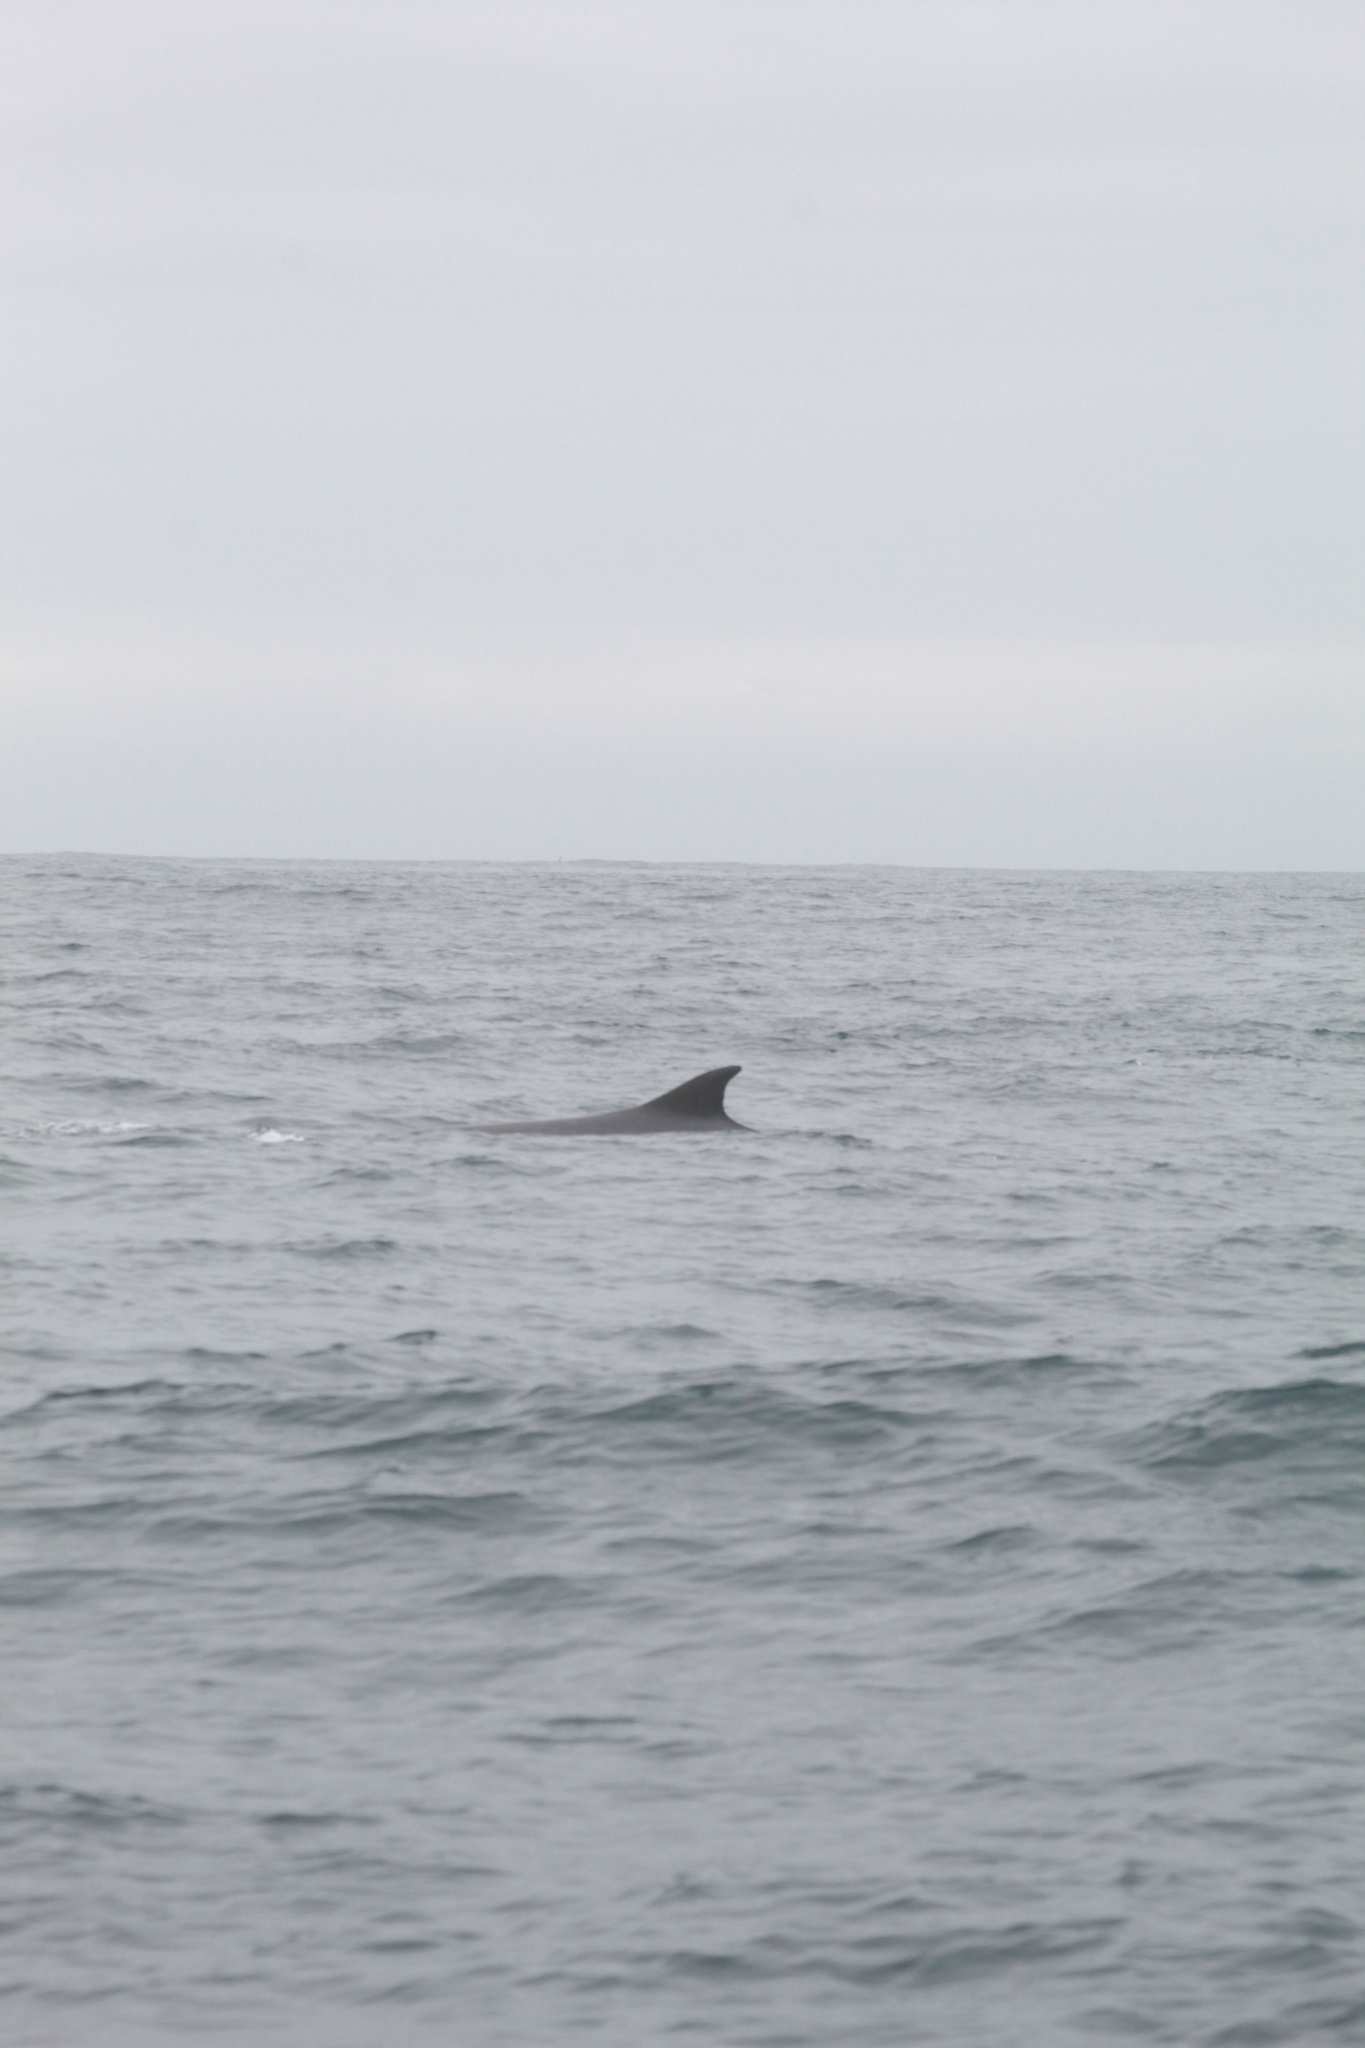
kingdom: Animalia
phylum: Chordata
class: Mammalia
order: Cetacea
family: Balaenopteridae
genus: Balaenoptera
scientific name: Balaenoptera physalus
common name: Fin whale
